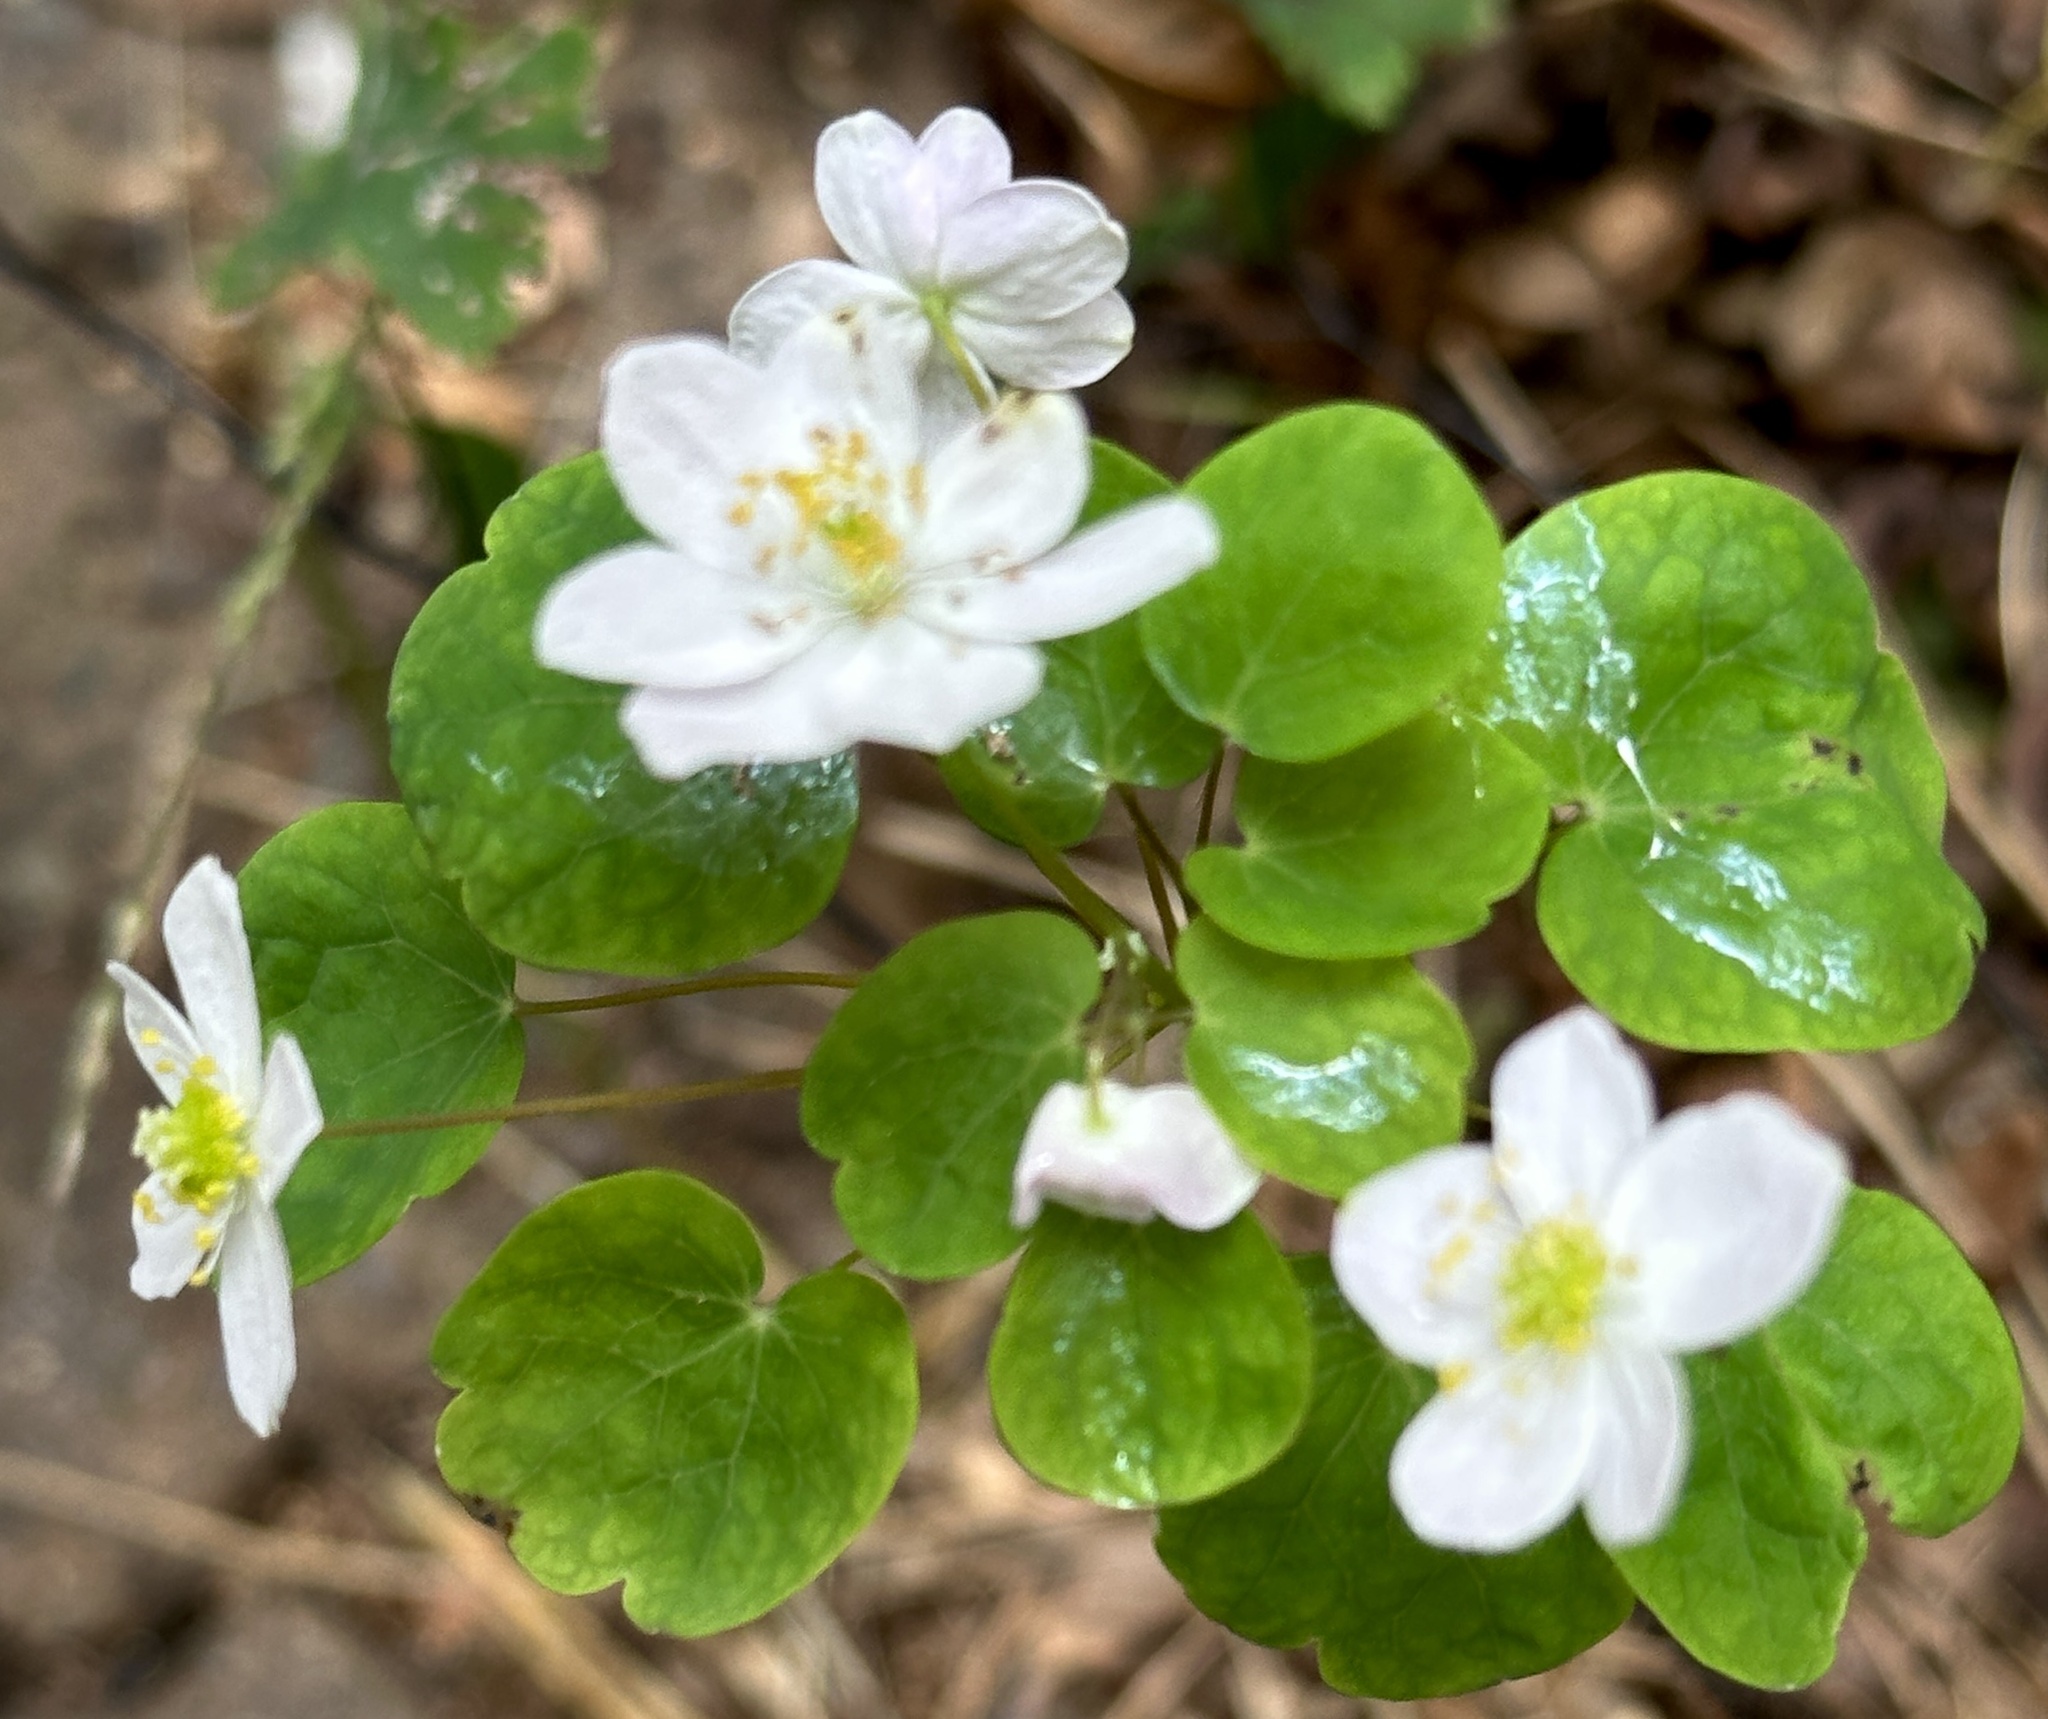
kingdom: Plantae
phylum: Tracheophyta
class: Magnoliopsida
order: Ranunculales
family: Ranunculaceae
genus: Thalictrum
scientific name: Thalictrum thalictroides
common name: Rue-anemone
